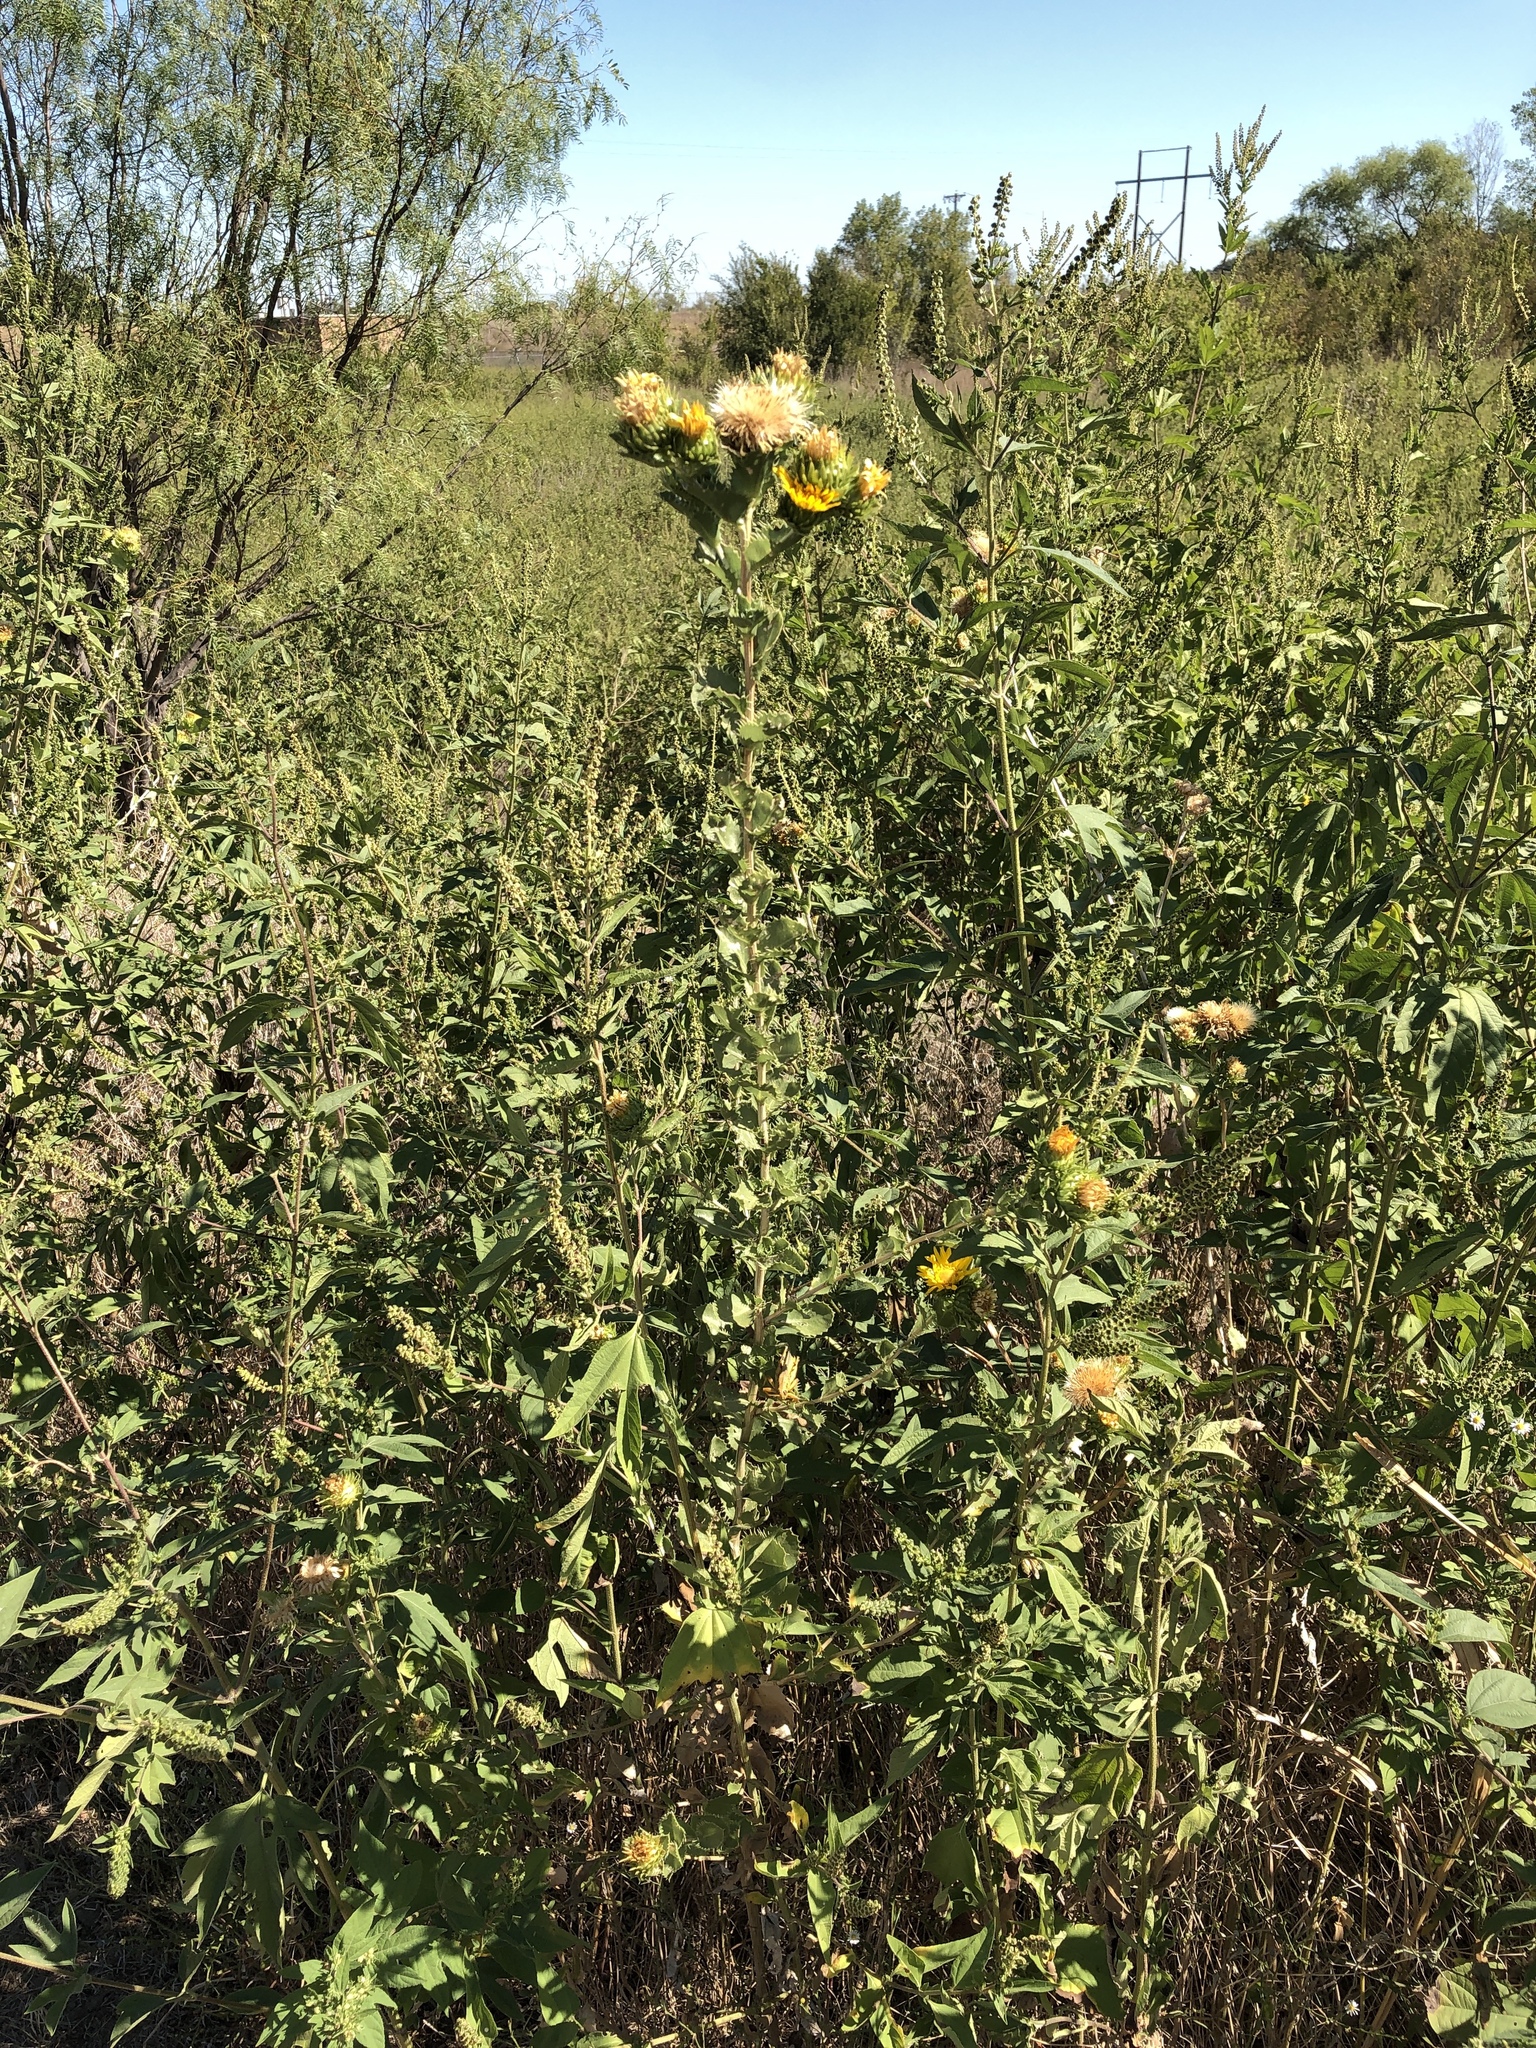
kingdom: Plantae
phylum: Tracheophyta
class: Magnoliopsida
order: Asterales
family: Asteraceae
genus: Grindelia
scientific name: Grindelia ciliata
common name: Goldenweed
